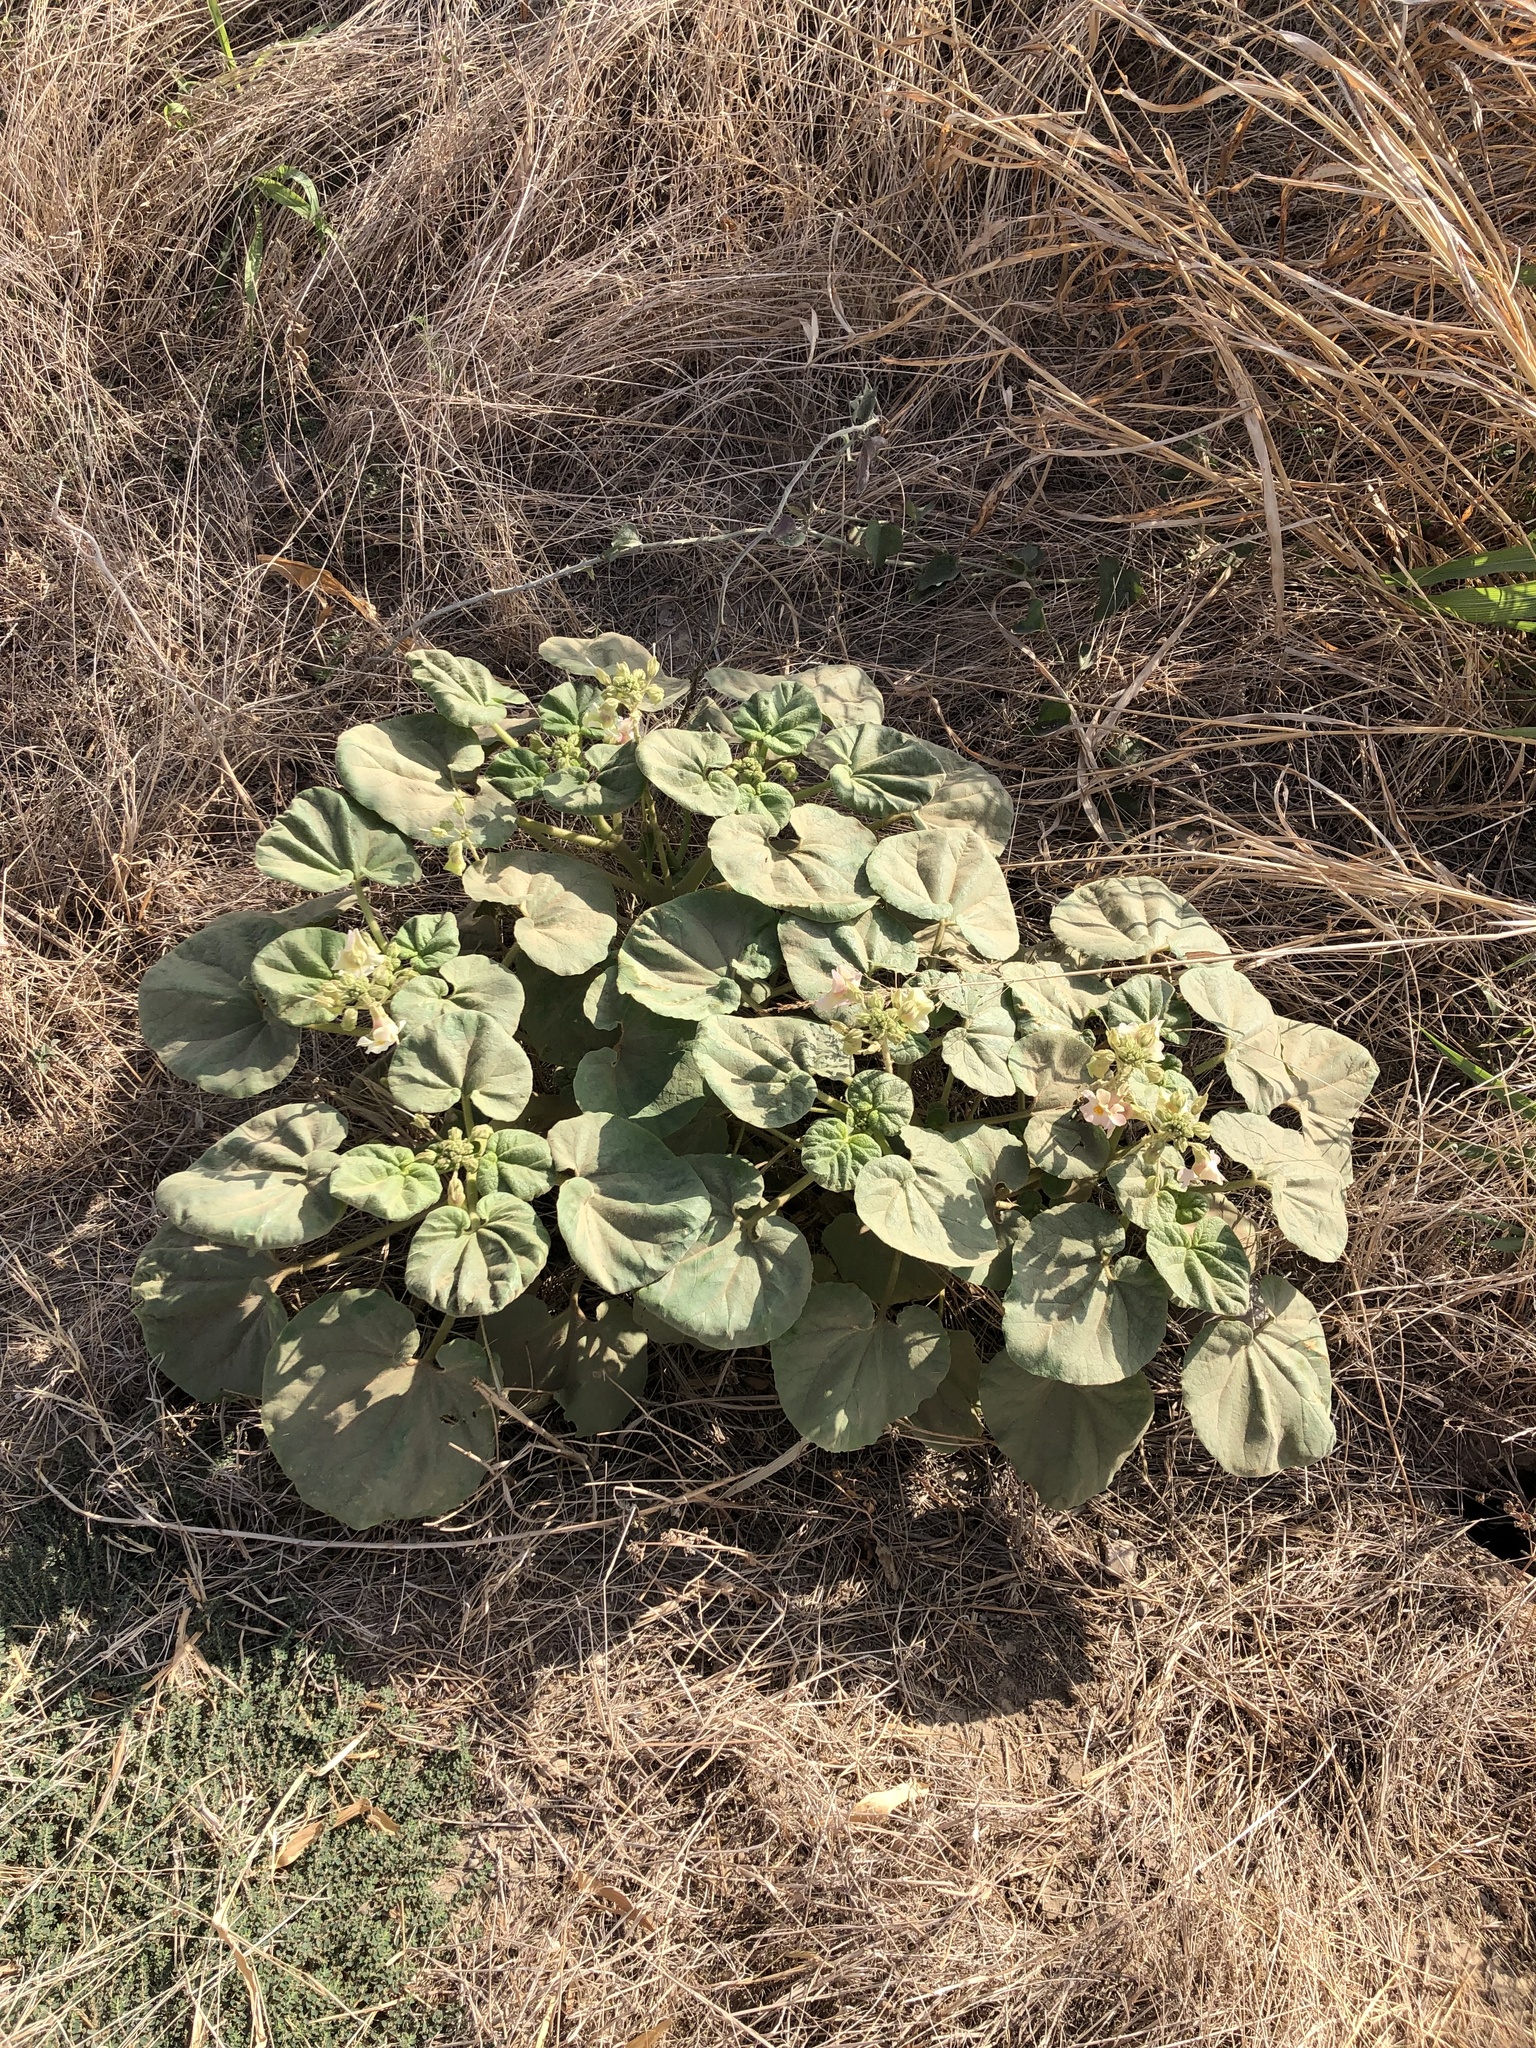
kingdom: Plantae
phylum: Tracheophyta
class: Magnoliopsida
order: Lamiales
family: Martyniaceae
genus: Proboscidea
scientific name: Proboscidea louisianica
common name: Elephant tusks
